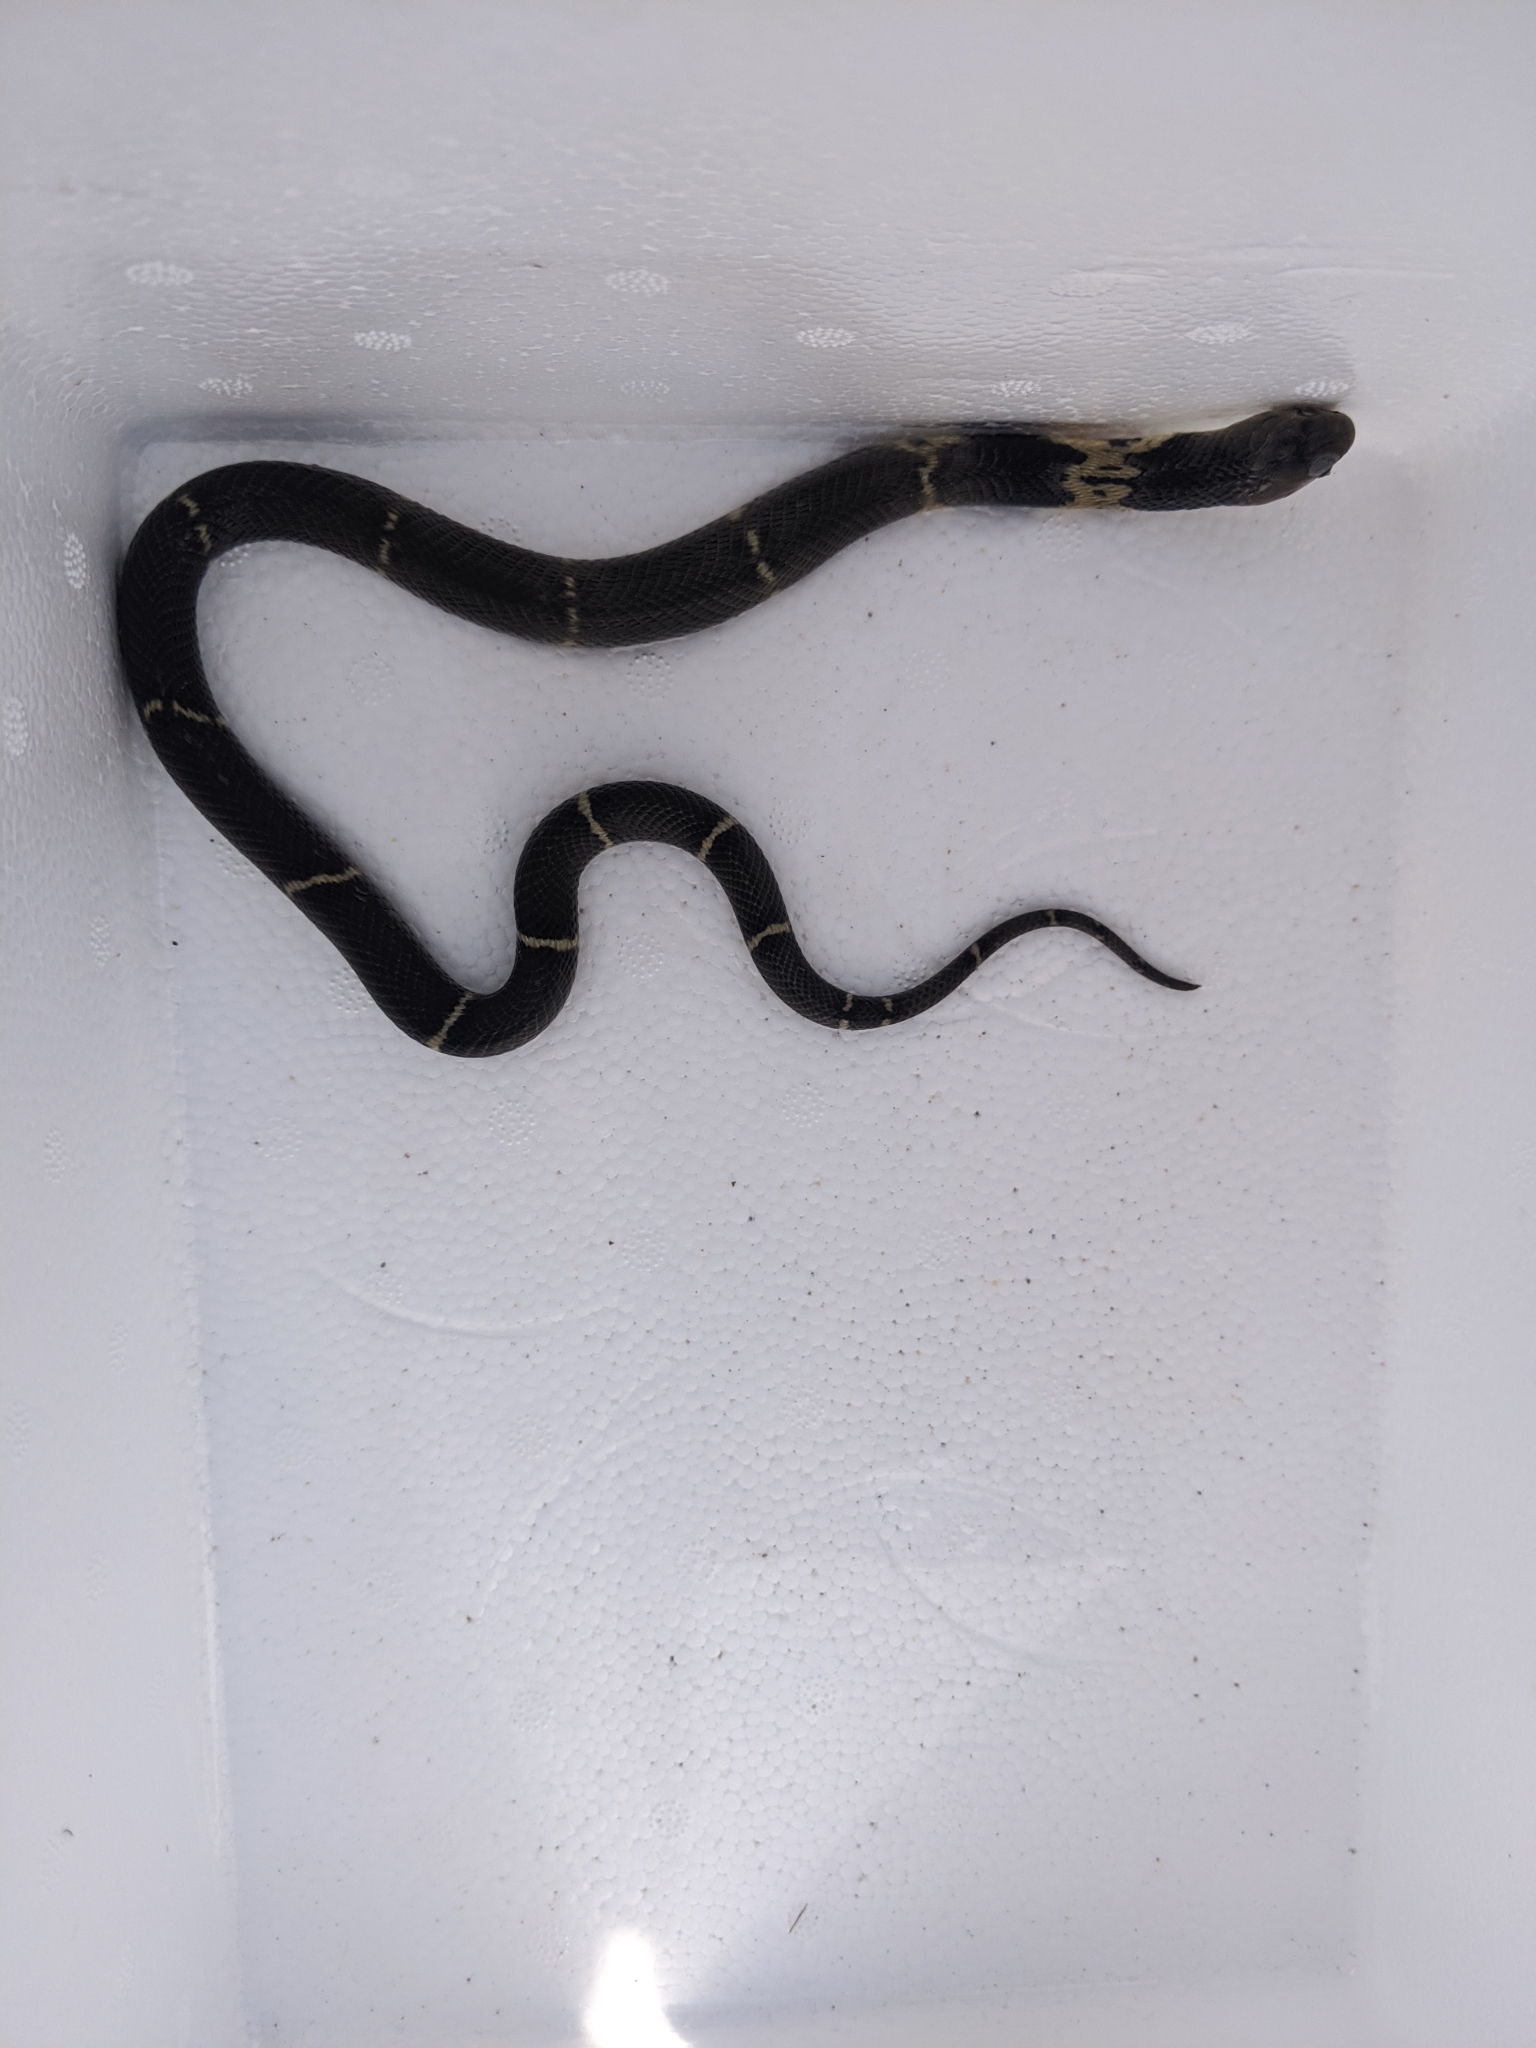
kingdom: Animalia
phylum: Chordata
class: Squamata
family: Elapidae
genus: Naja
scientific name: Naja atra
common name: Chinese cobra
